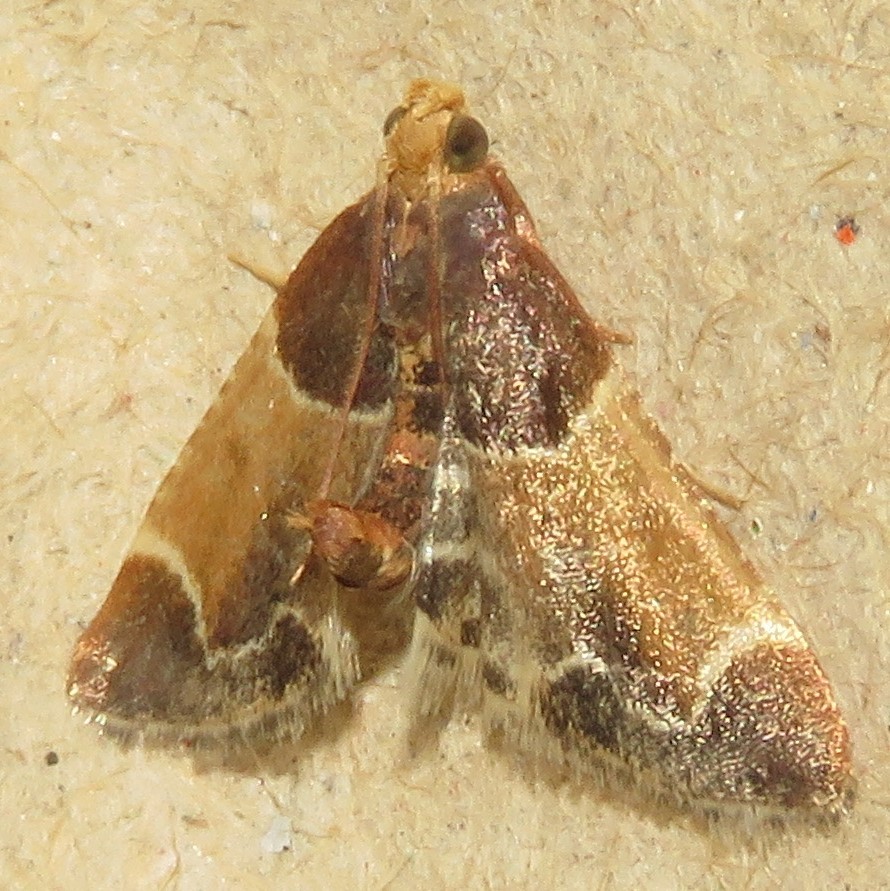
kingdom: Animalia
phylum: Arthropoda
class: Insecta
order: Lepidoptera
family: Pyralidae
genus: Pyralis
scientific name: Pyralis farinalis
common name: Meal moth
